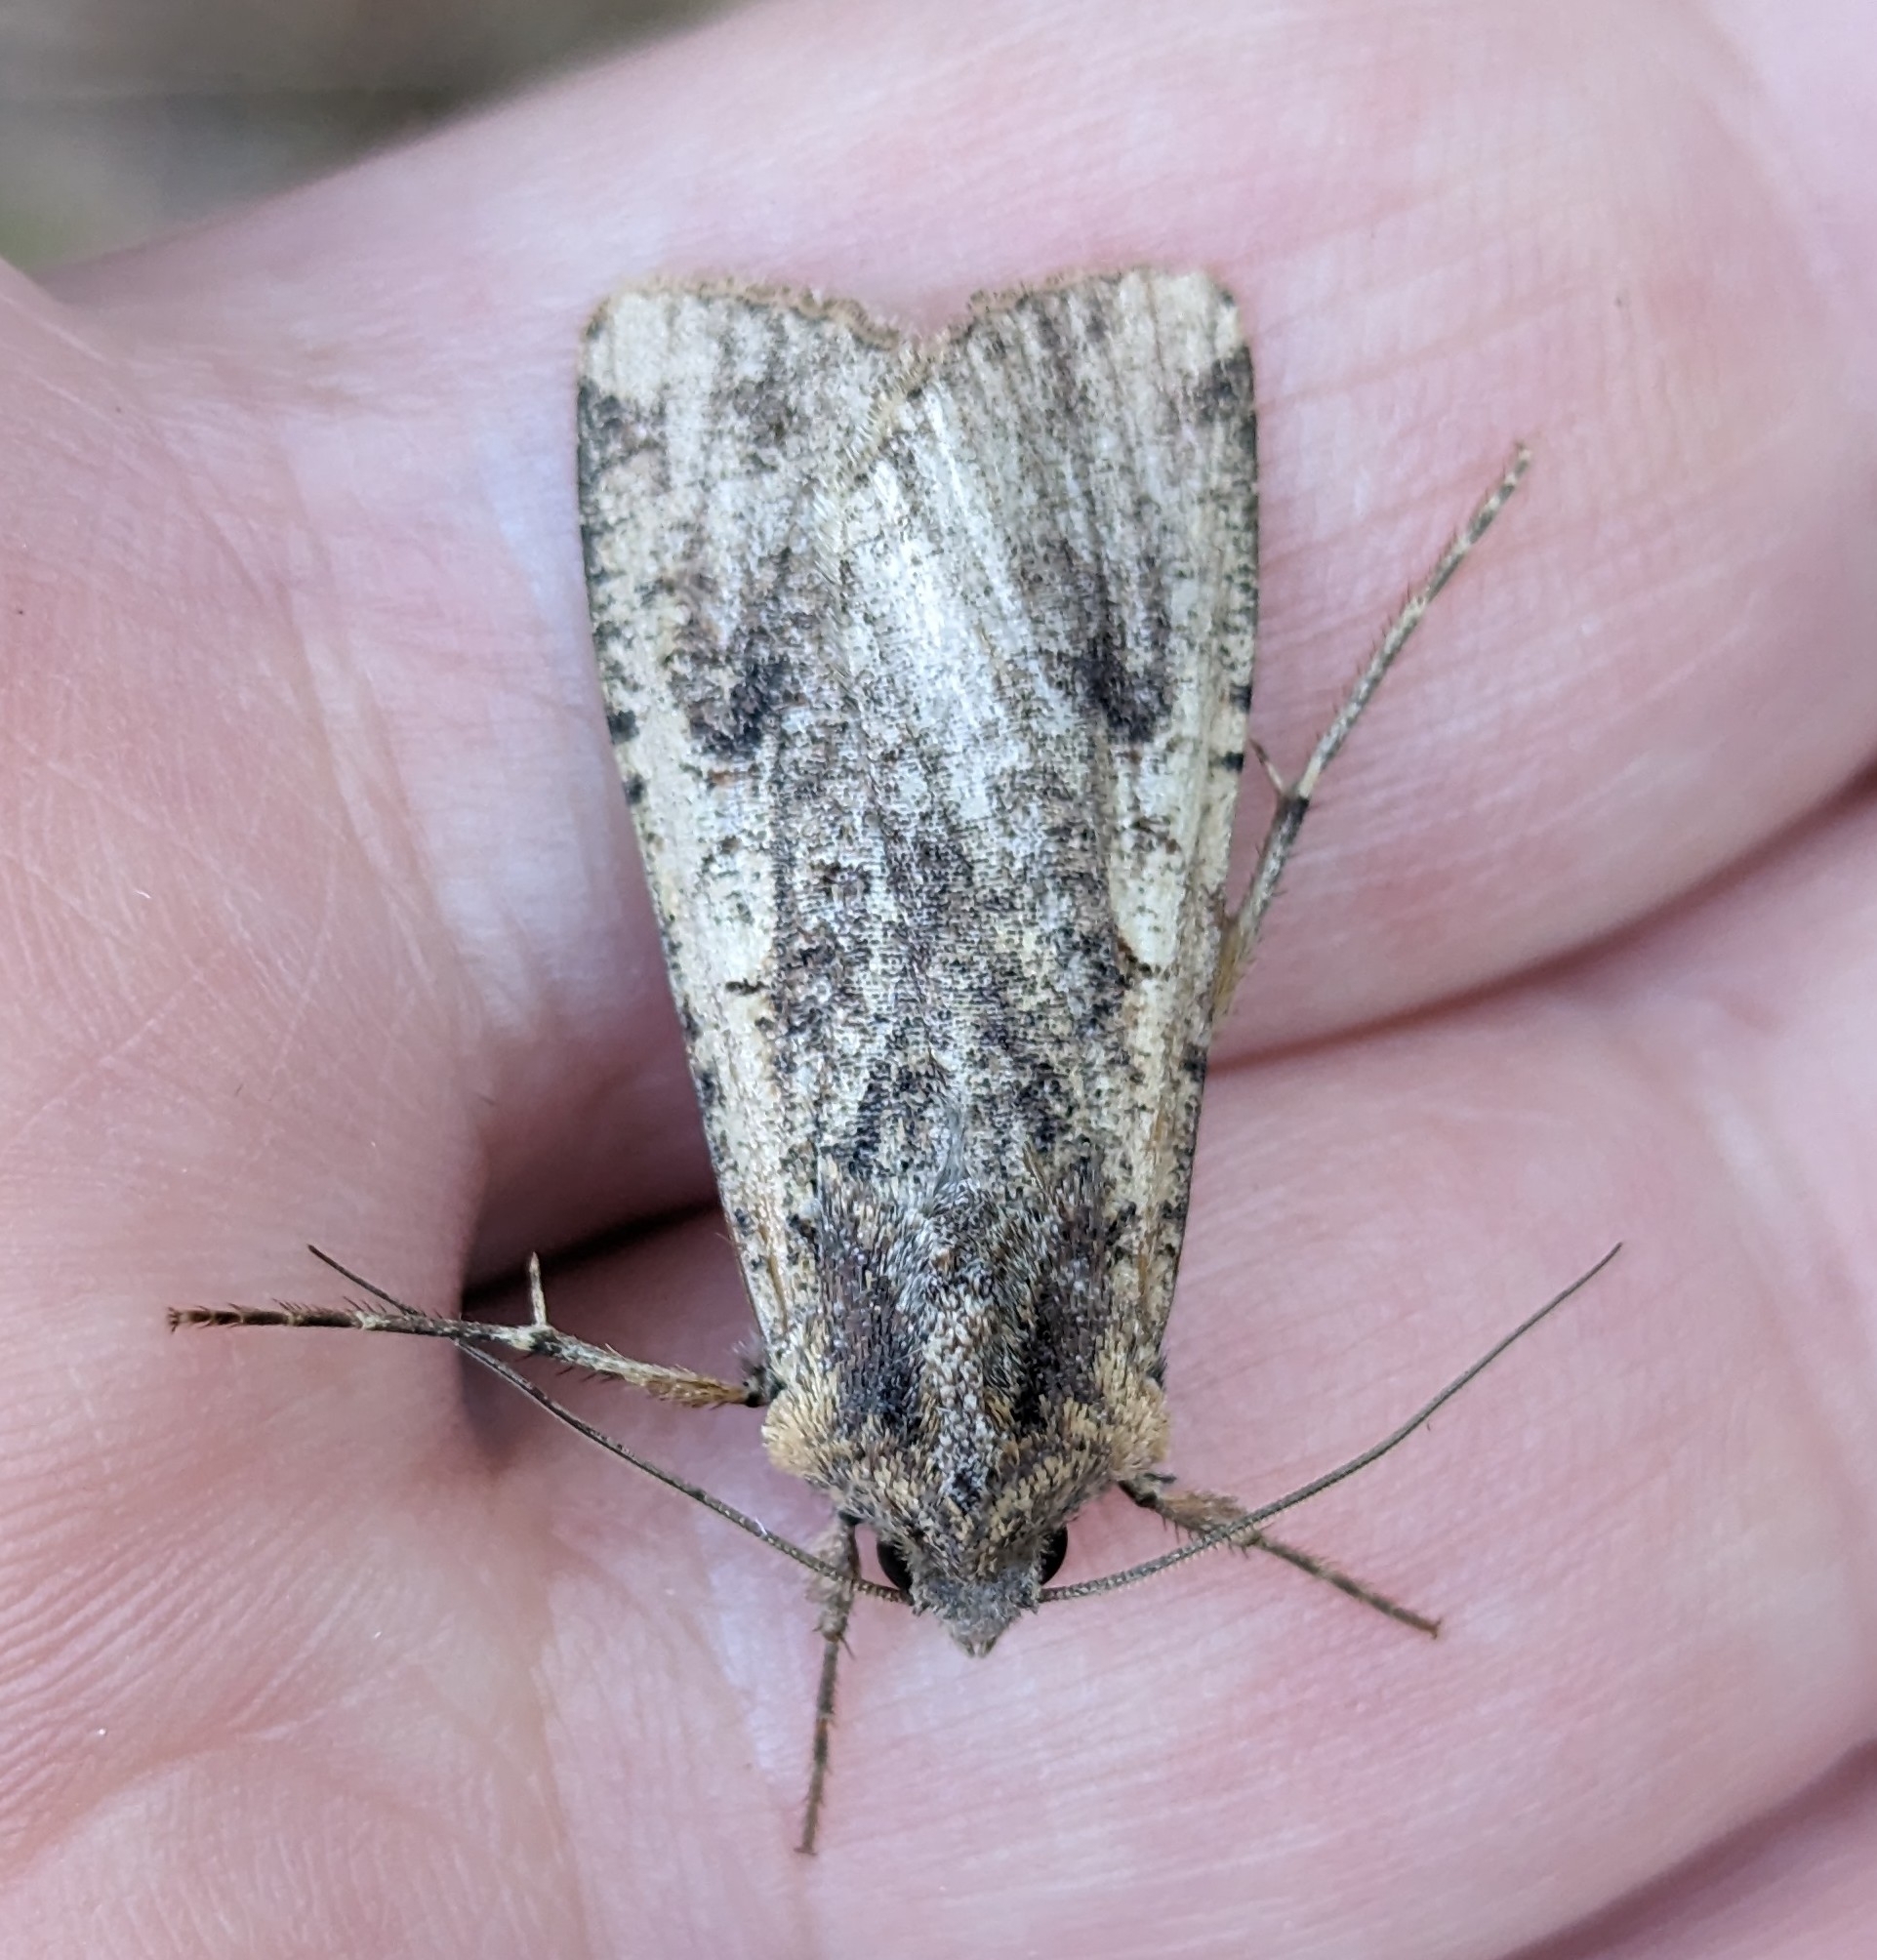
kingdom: Animalia
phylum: Arthropoda
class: Insecta
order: Lepidoptera
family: Noctuidae
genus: Peridroma
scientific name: Peridroma saucia
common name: Pearly underwing
